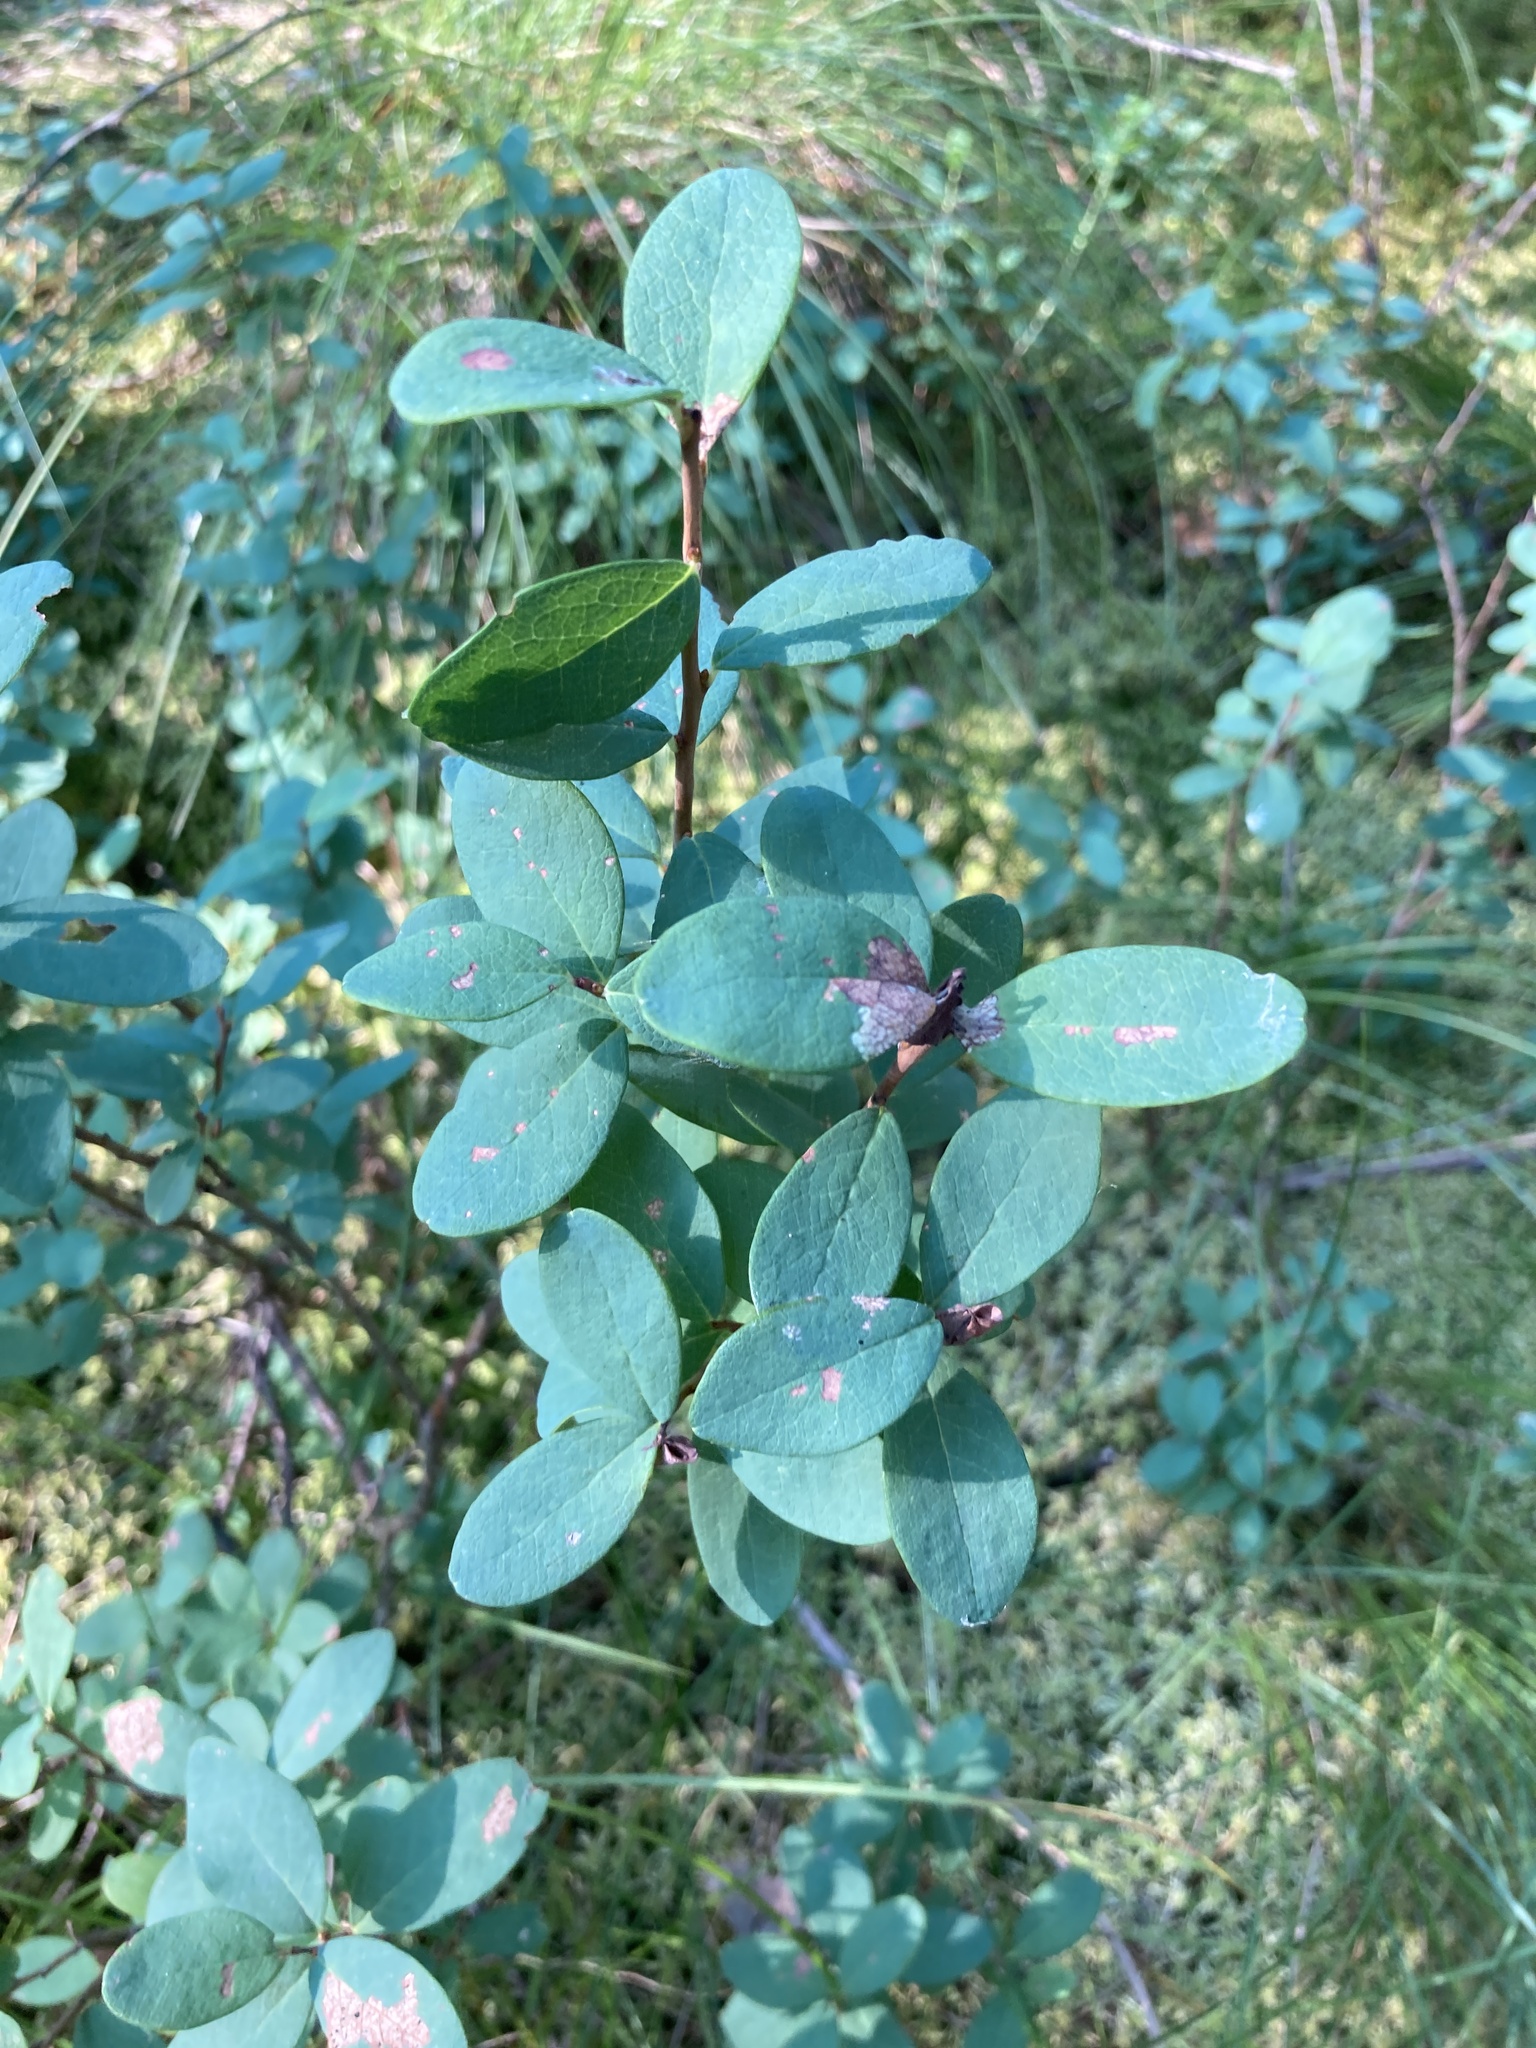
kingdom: Plantae
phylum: Tracheophyta
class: Magnoliopsida
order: Ericales
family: Ericaceae
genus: Vaccinium
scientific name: Vaccinium uliginosum
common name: Bog bilberry
